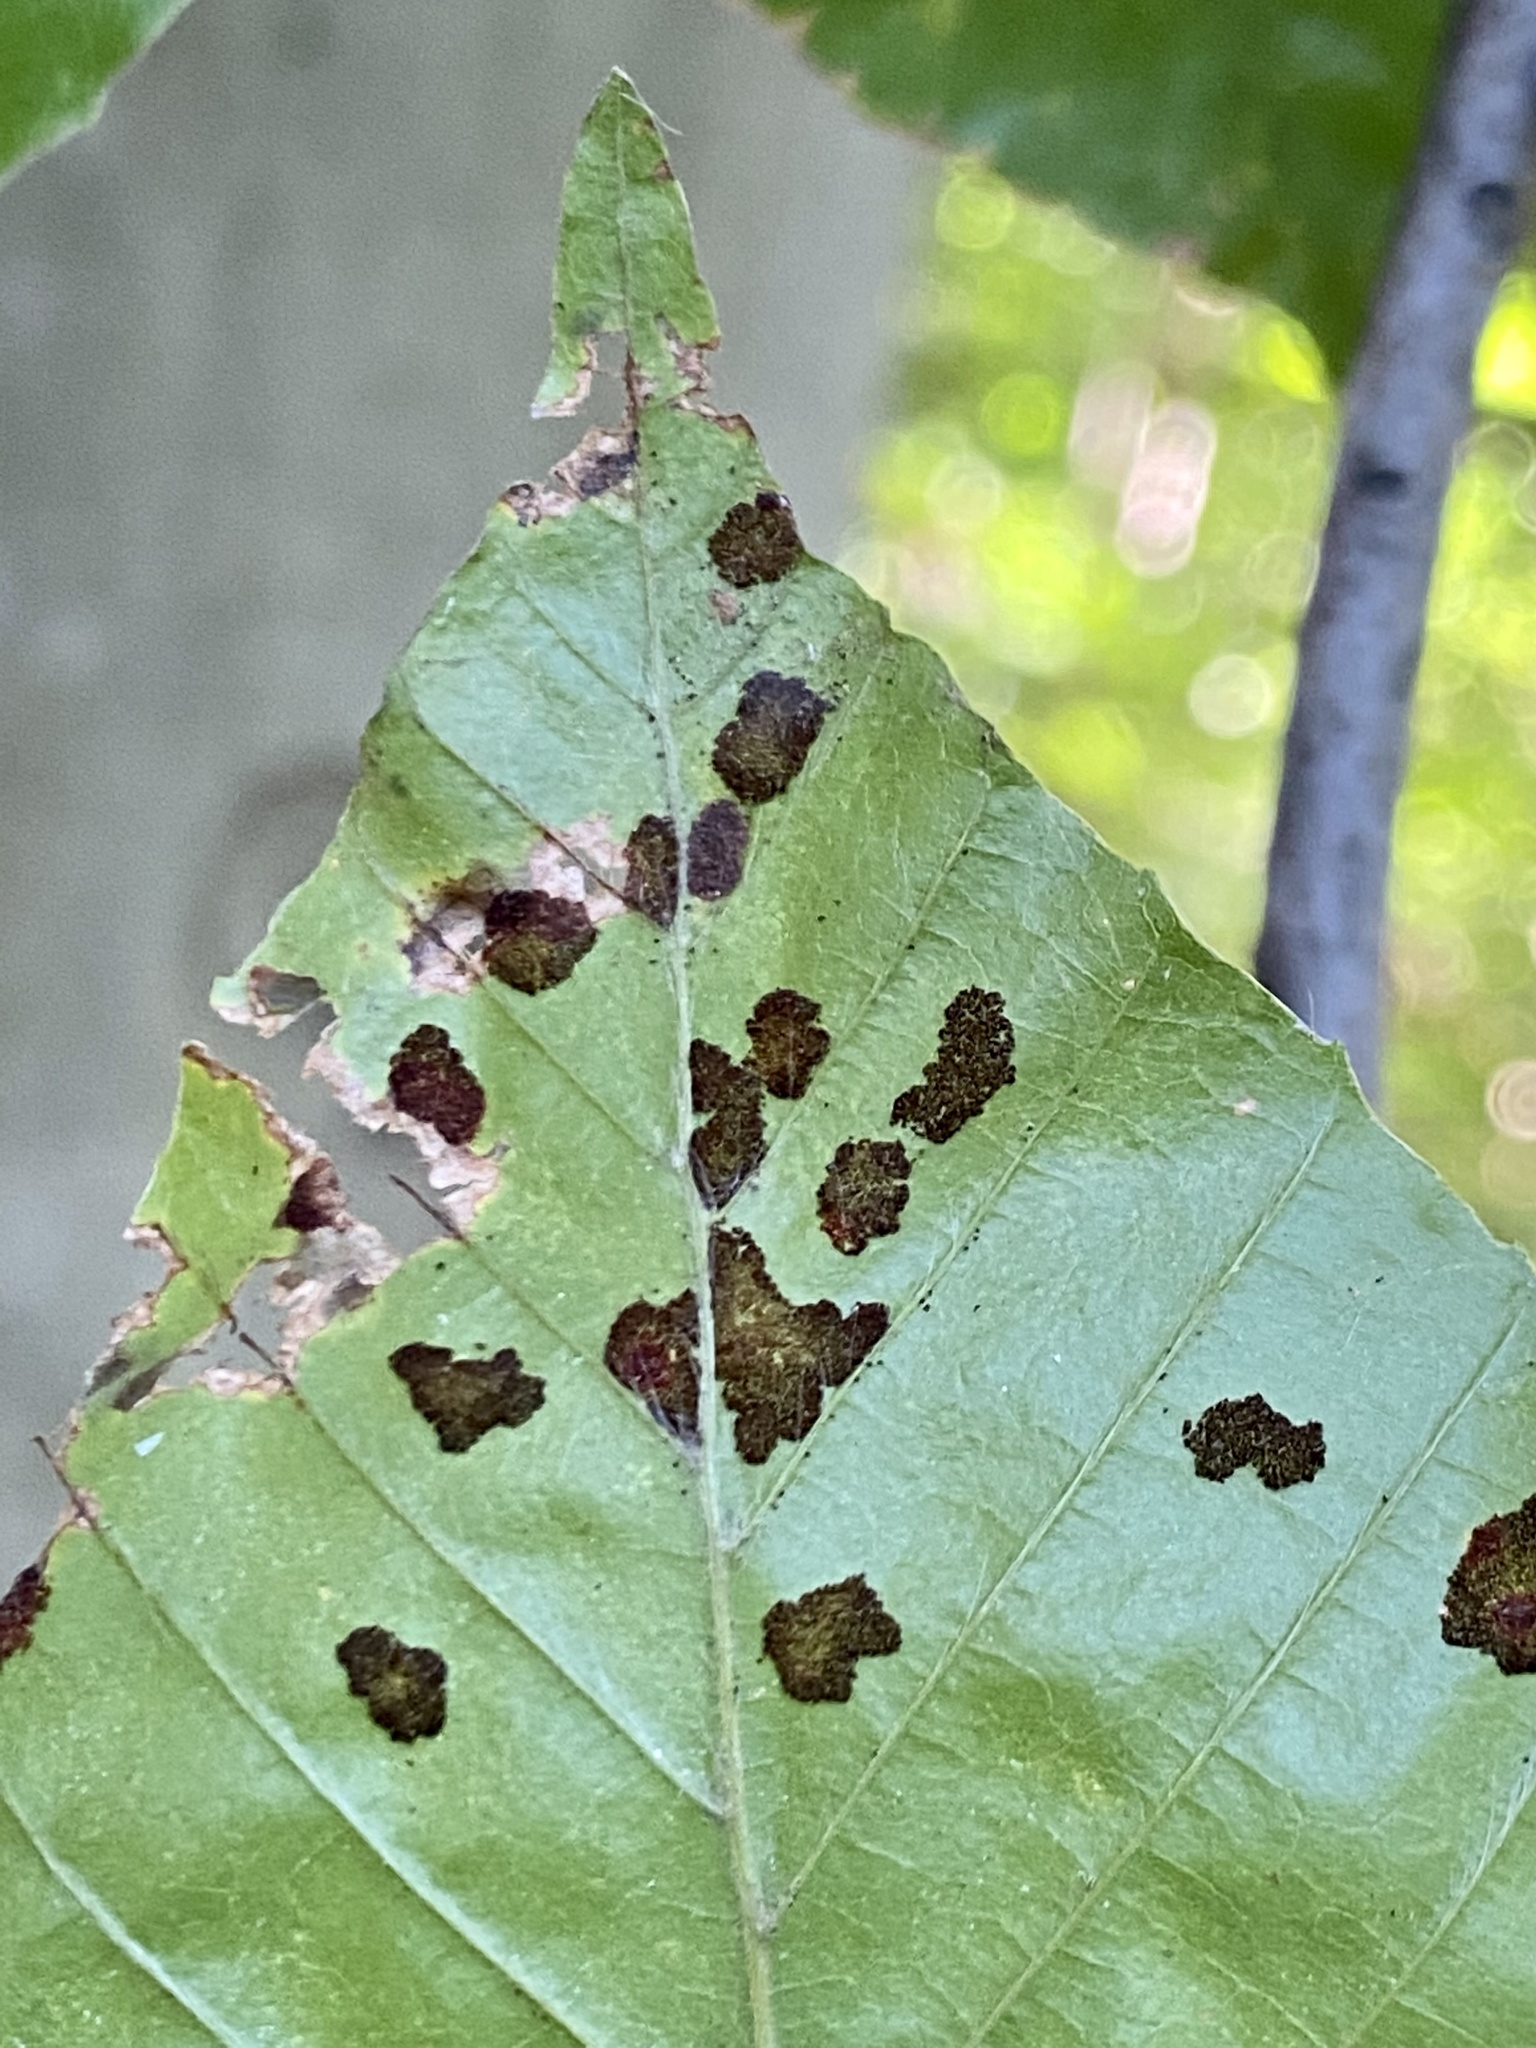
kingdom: Animalia
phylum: Arthropoda
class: Arachnida
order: Trombidiformes
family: Eriophyidae
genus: Acalitus
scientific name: Acalitus
